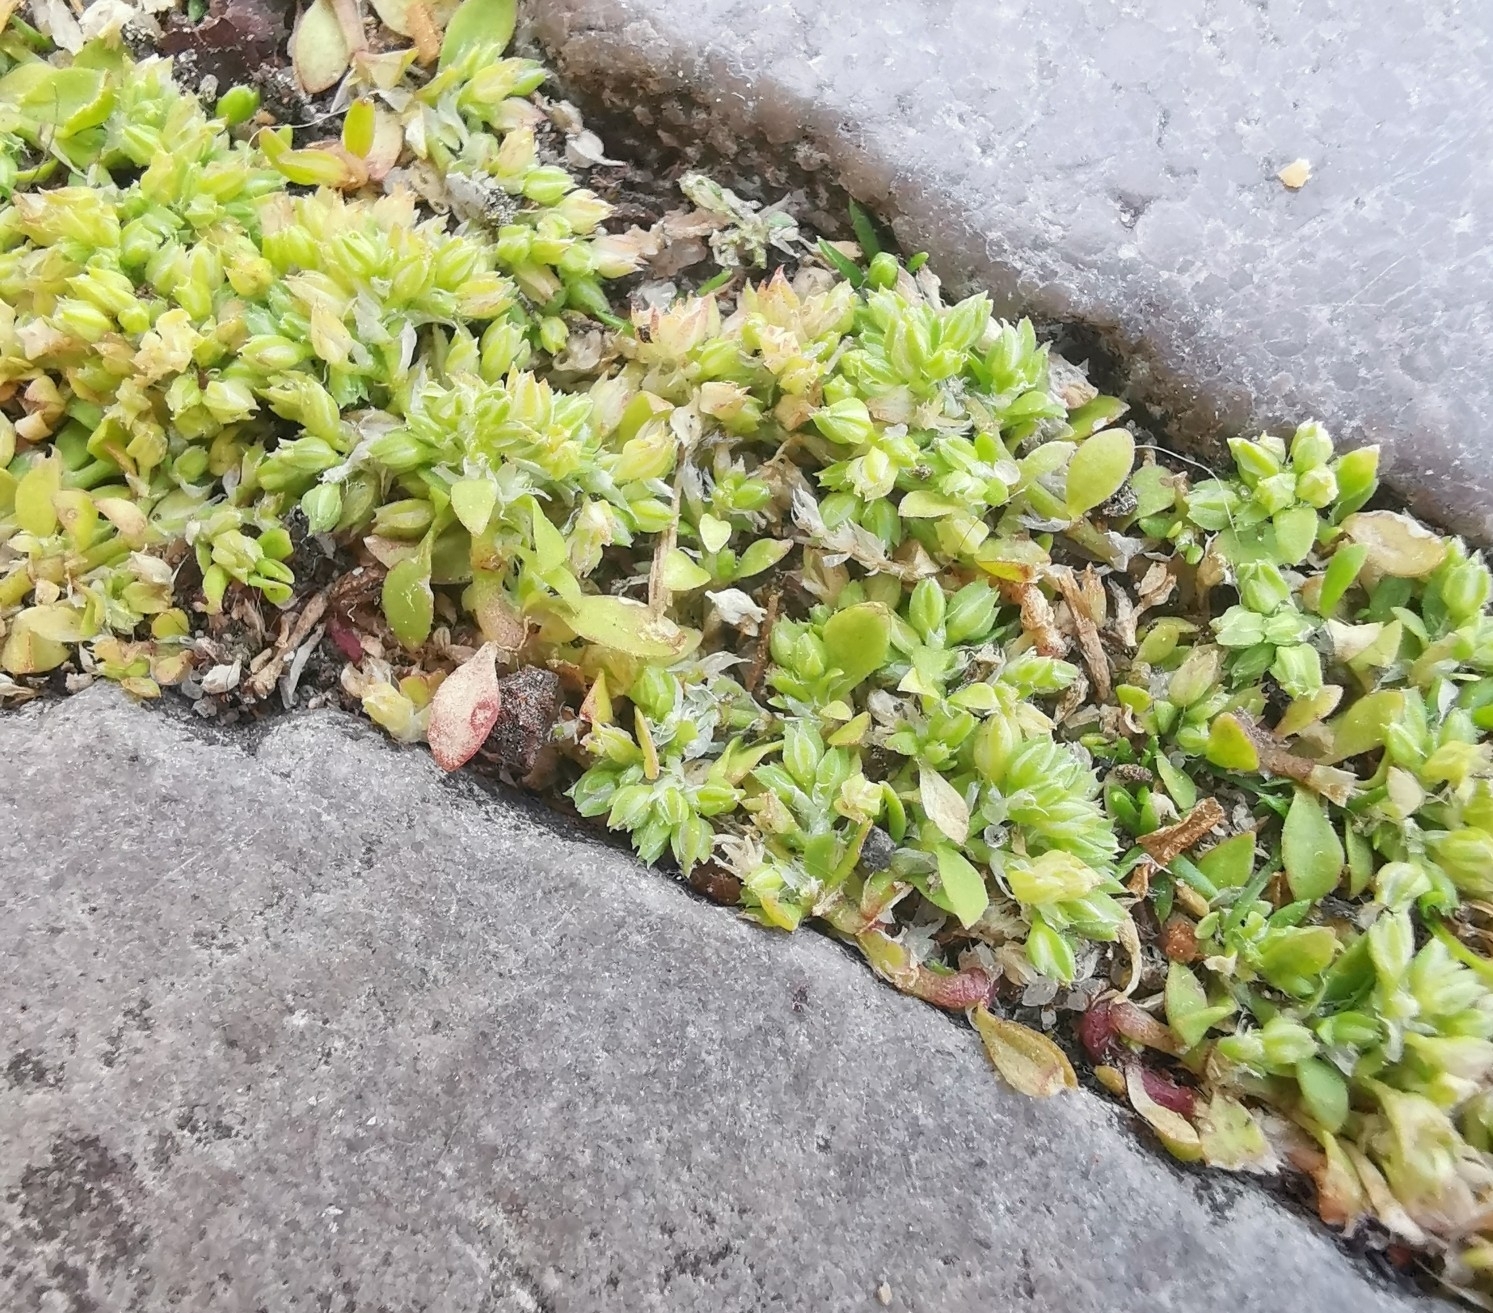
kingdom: Plantae
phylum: Tracheophyta
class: Magnoliopsida
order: Caryophyllales
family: Caryophyllaceae
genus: Polycarpon
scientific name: Polycarpon tetraphyllum
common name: Four-leaved all-seed
